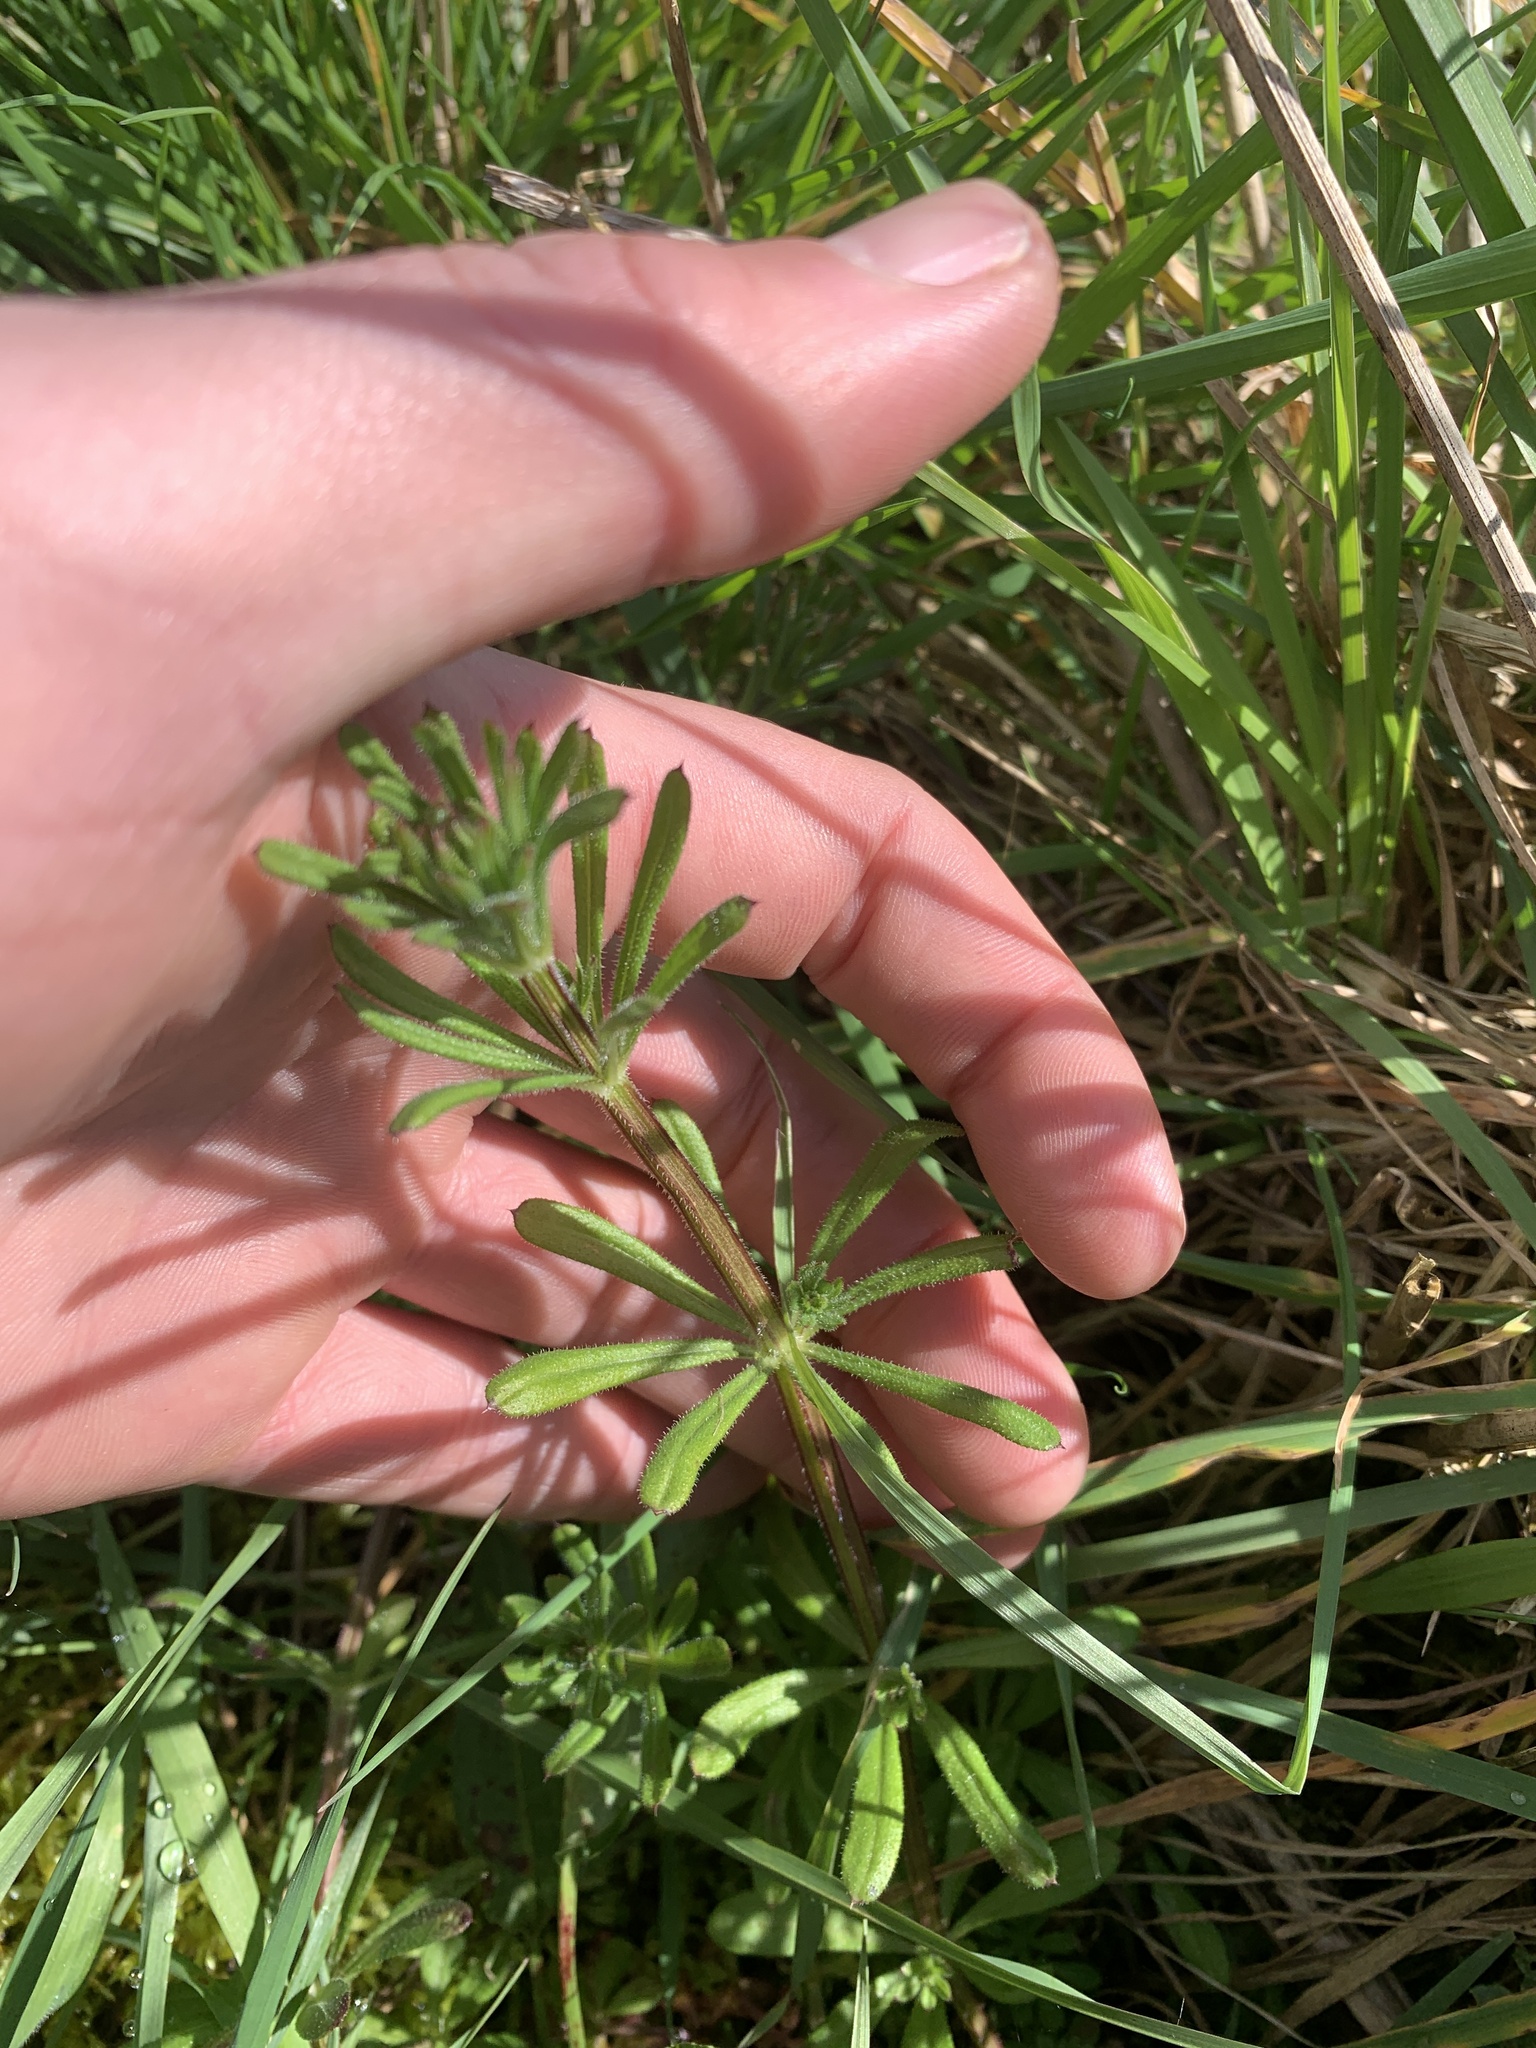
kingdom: Plantae
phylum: Tracheophyta
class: Magnoliopsida
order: Gentianales
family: Rubiaceae
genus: Galium
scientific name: Galium aparine
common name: Cleavers
